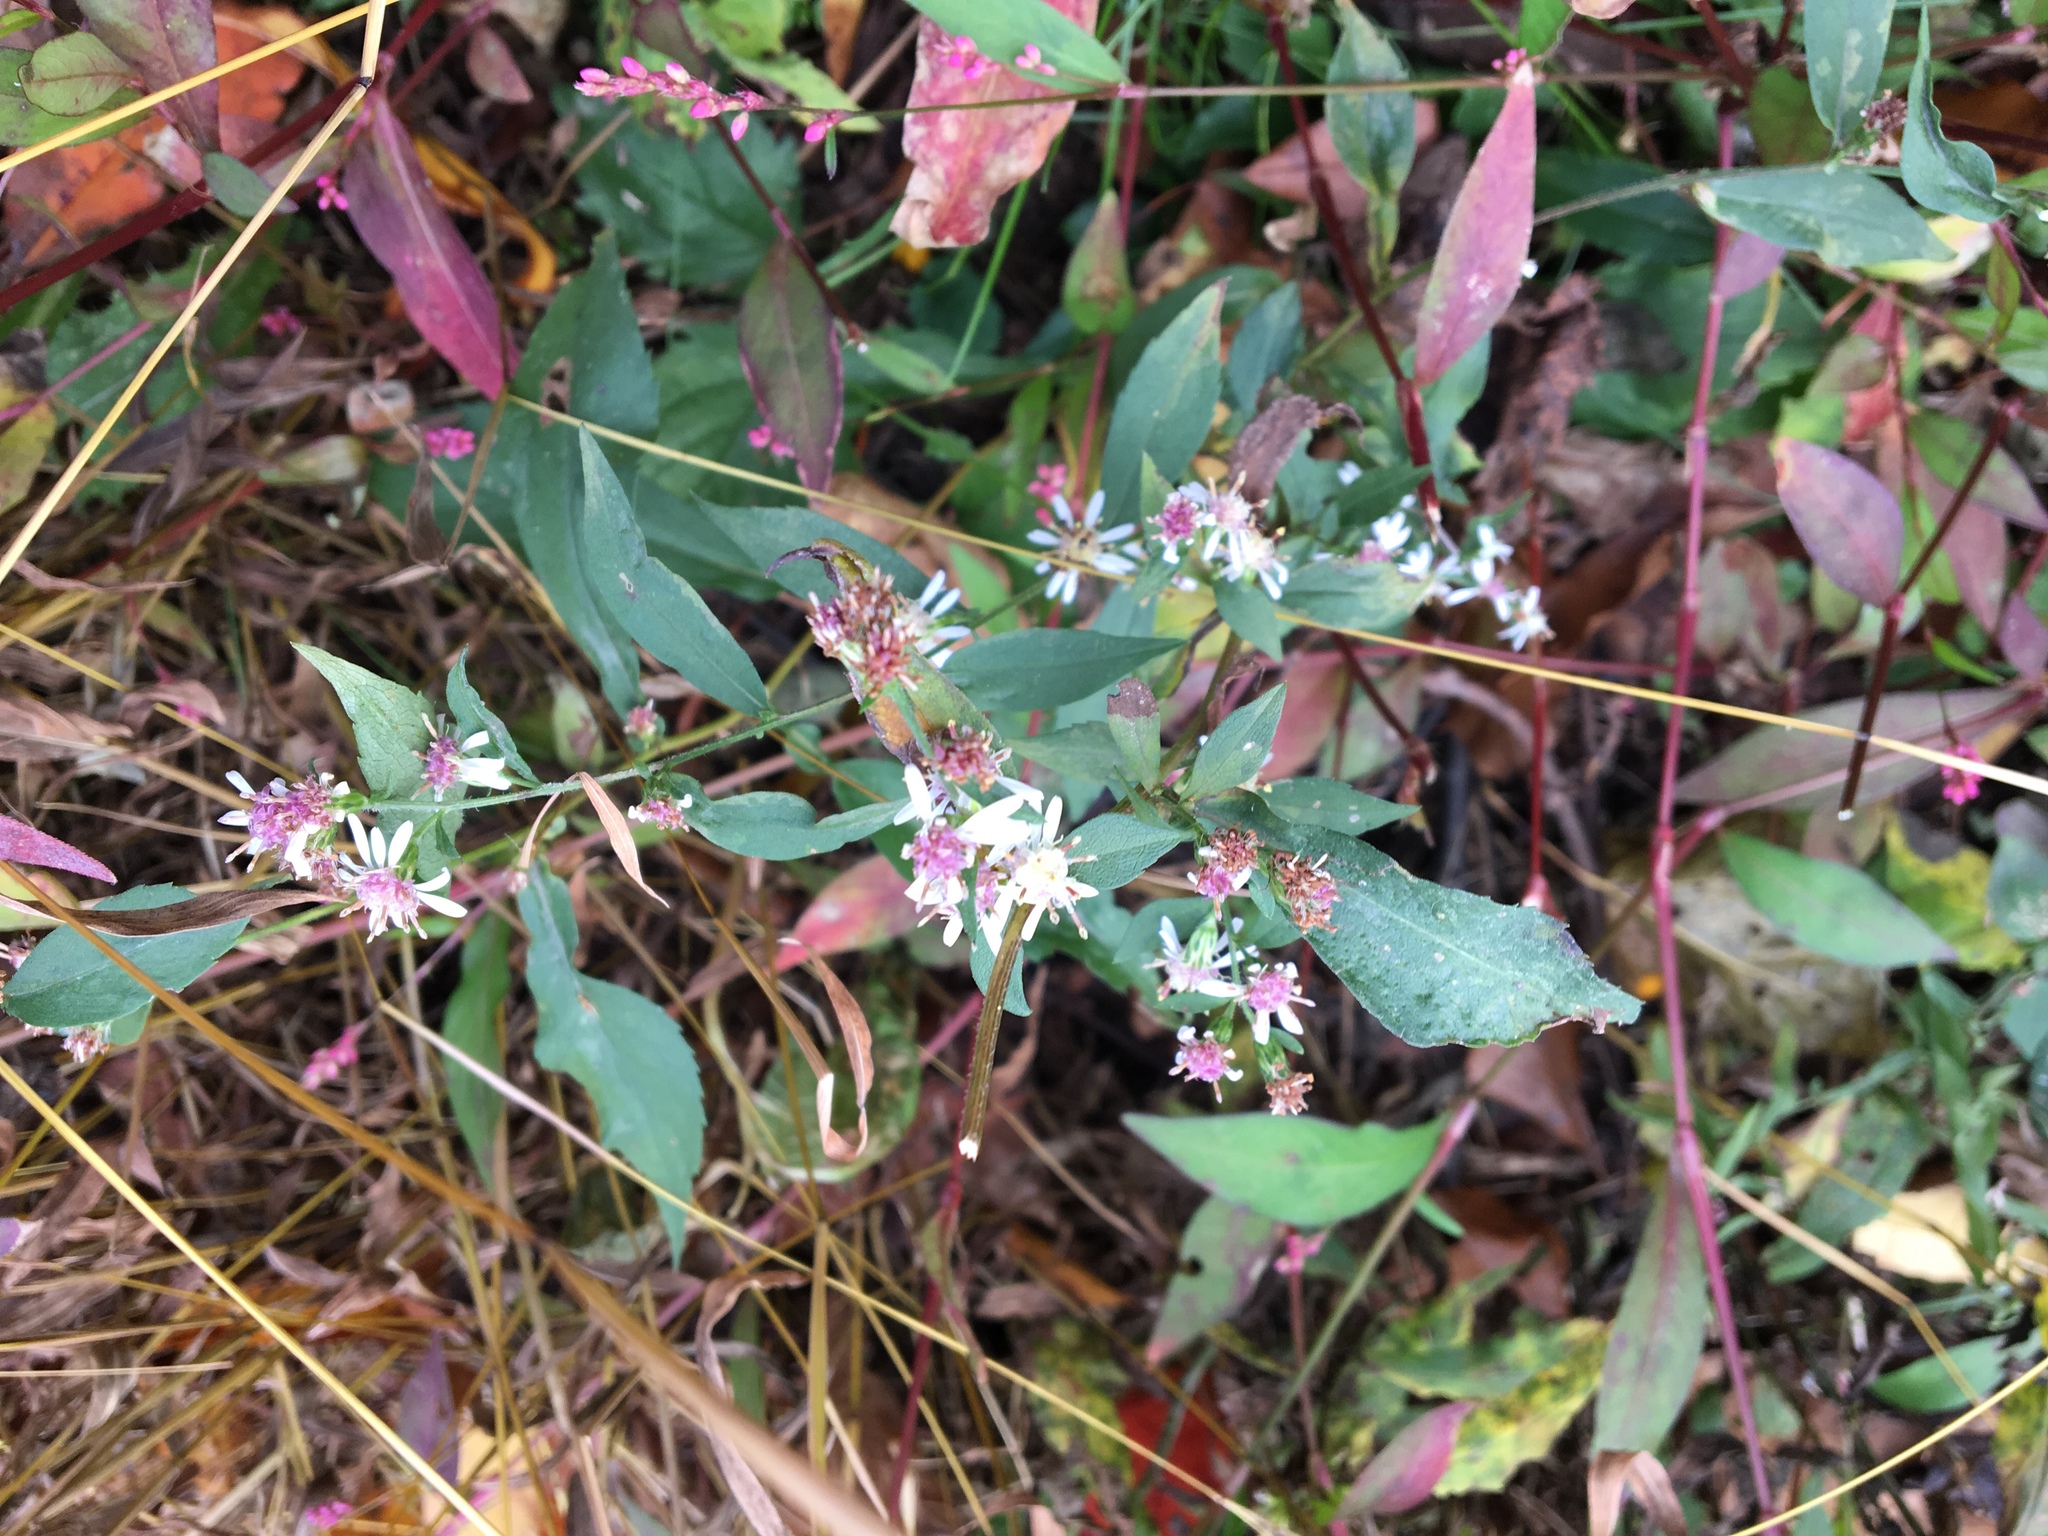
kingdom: Plantae
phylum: Tracheophyta
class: Magnoliopsida
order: Asterales
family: Asteraceae
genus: Eurybia
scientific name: Eurybia divaricata
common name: White wood aster
